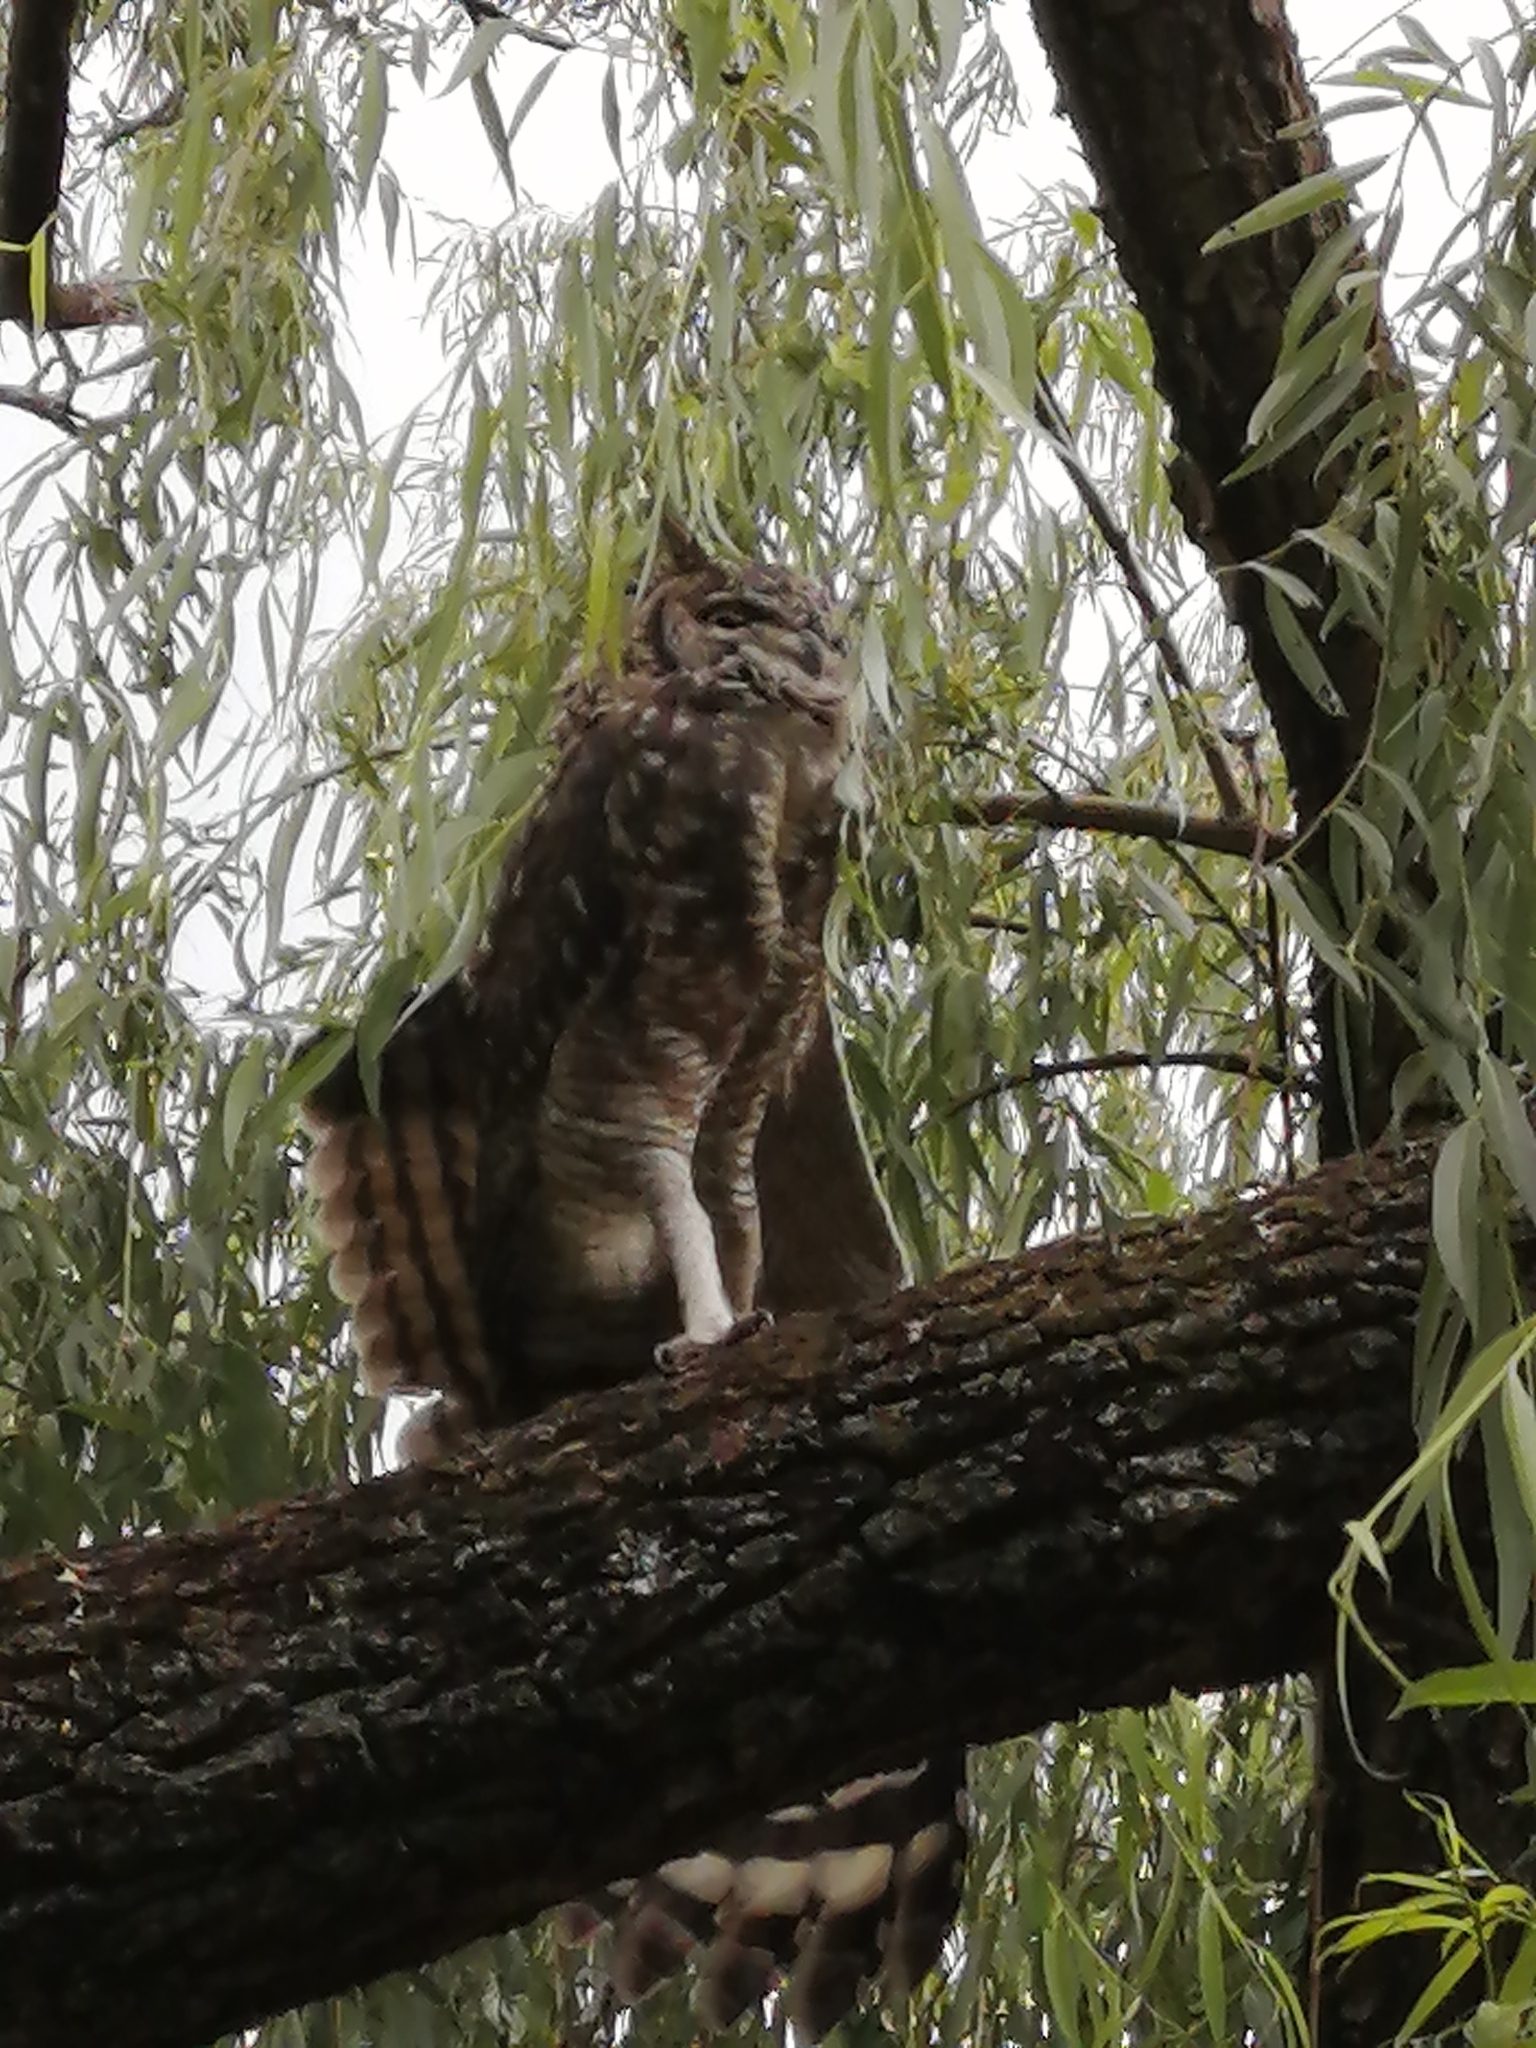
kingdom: Animalia
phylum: Chordata
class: Aves
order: Strigiformes
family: Strigidae
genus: Bubo
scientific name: Bubo africanus
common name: Spotted eagle-owl
